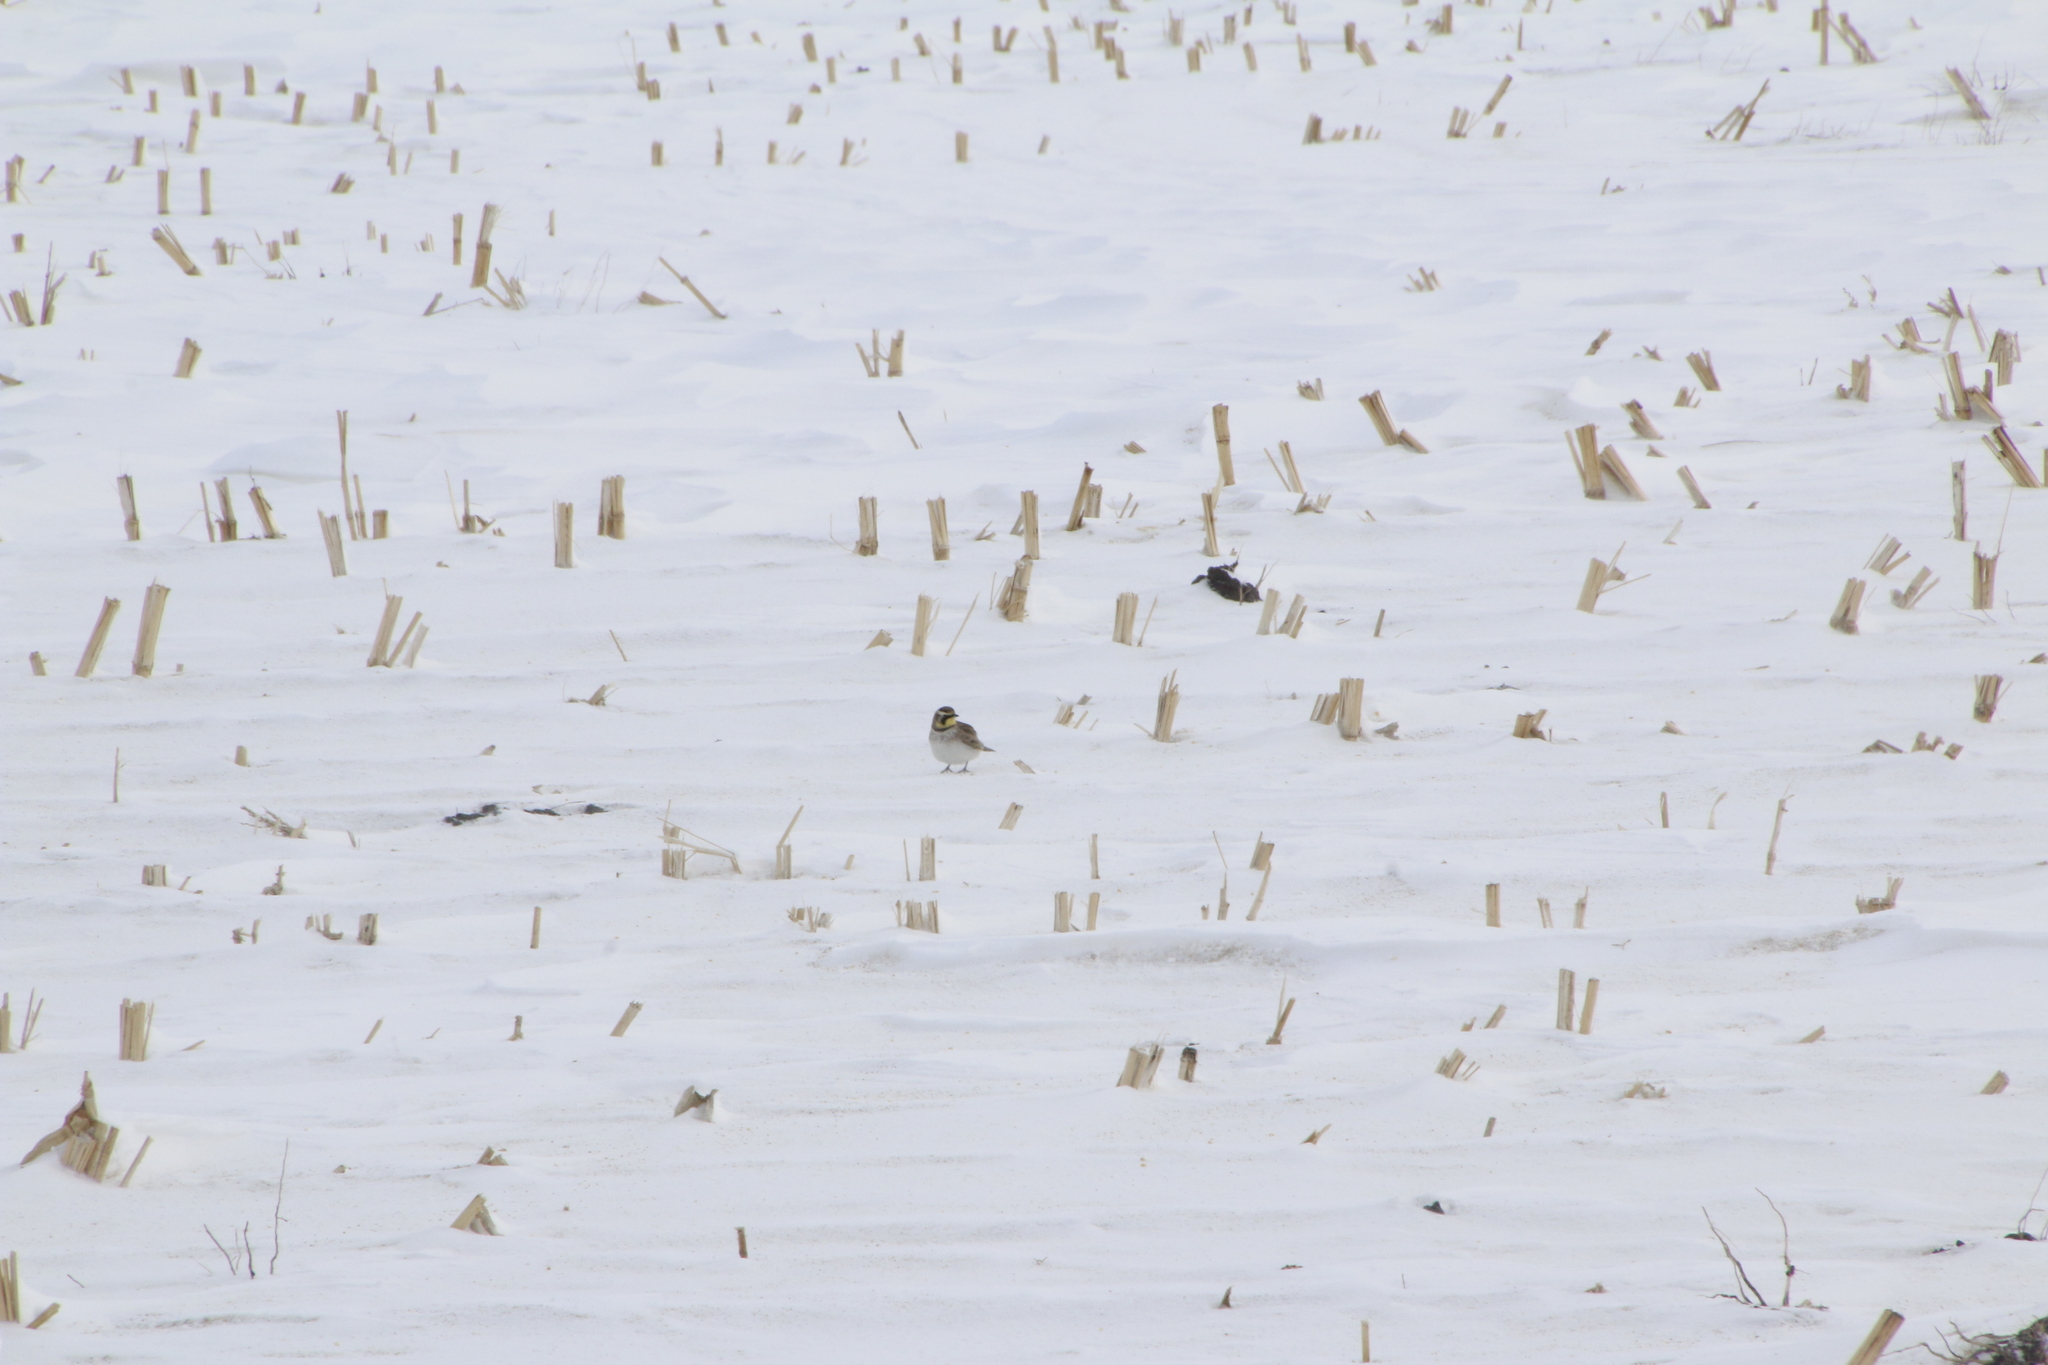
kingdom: Animalia
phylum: Chordata
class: Aves
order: Passeriformes
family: Alaudidae
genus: Eremophila
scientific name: Eremophila alpestris
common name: Horned lark
